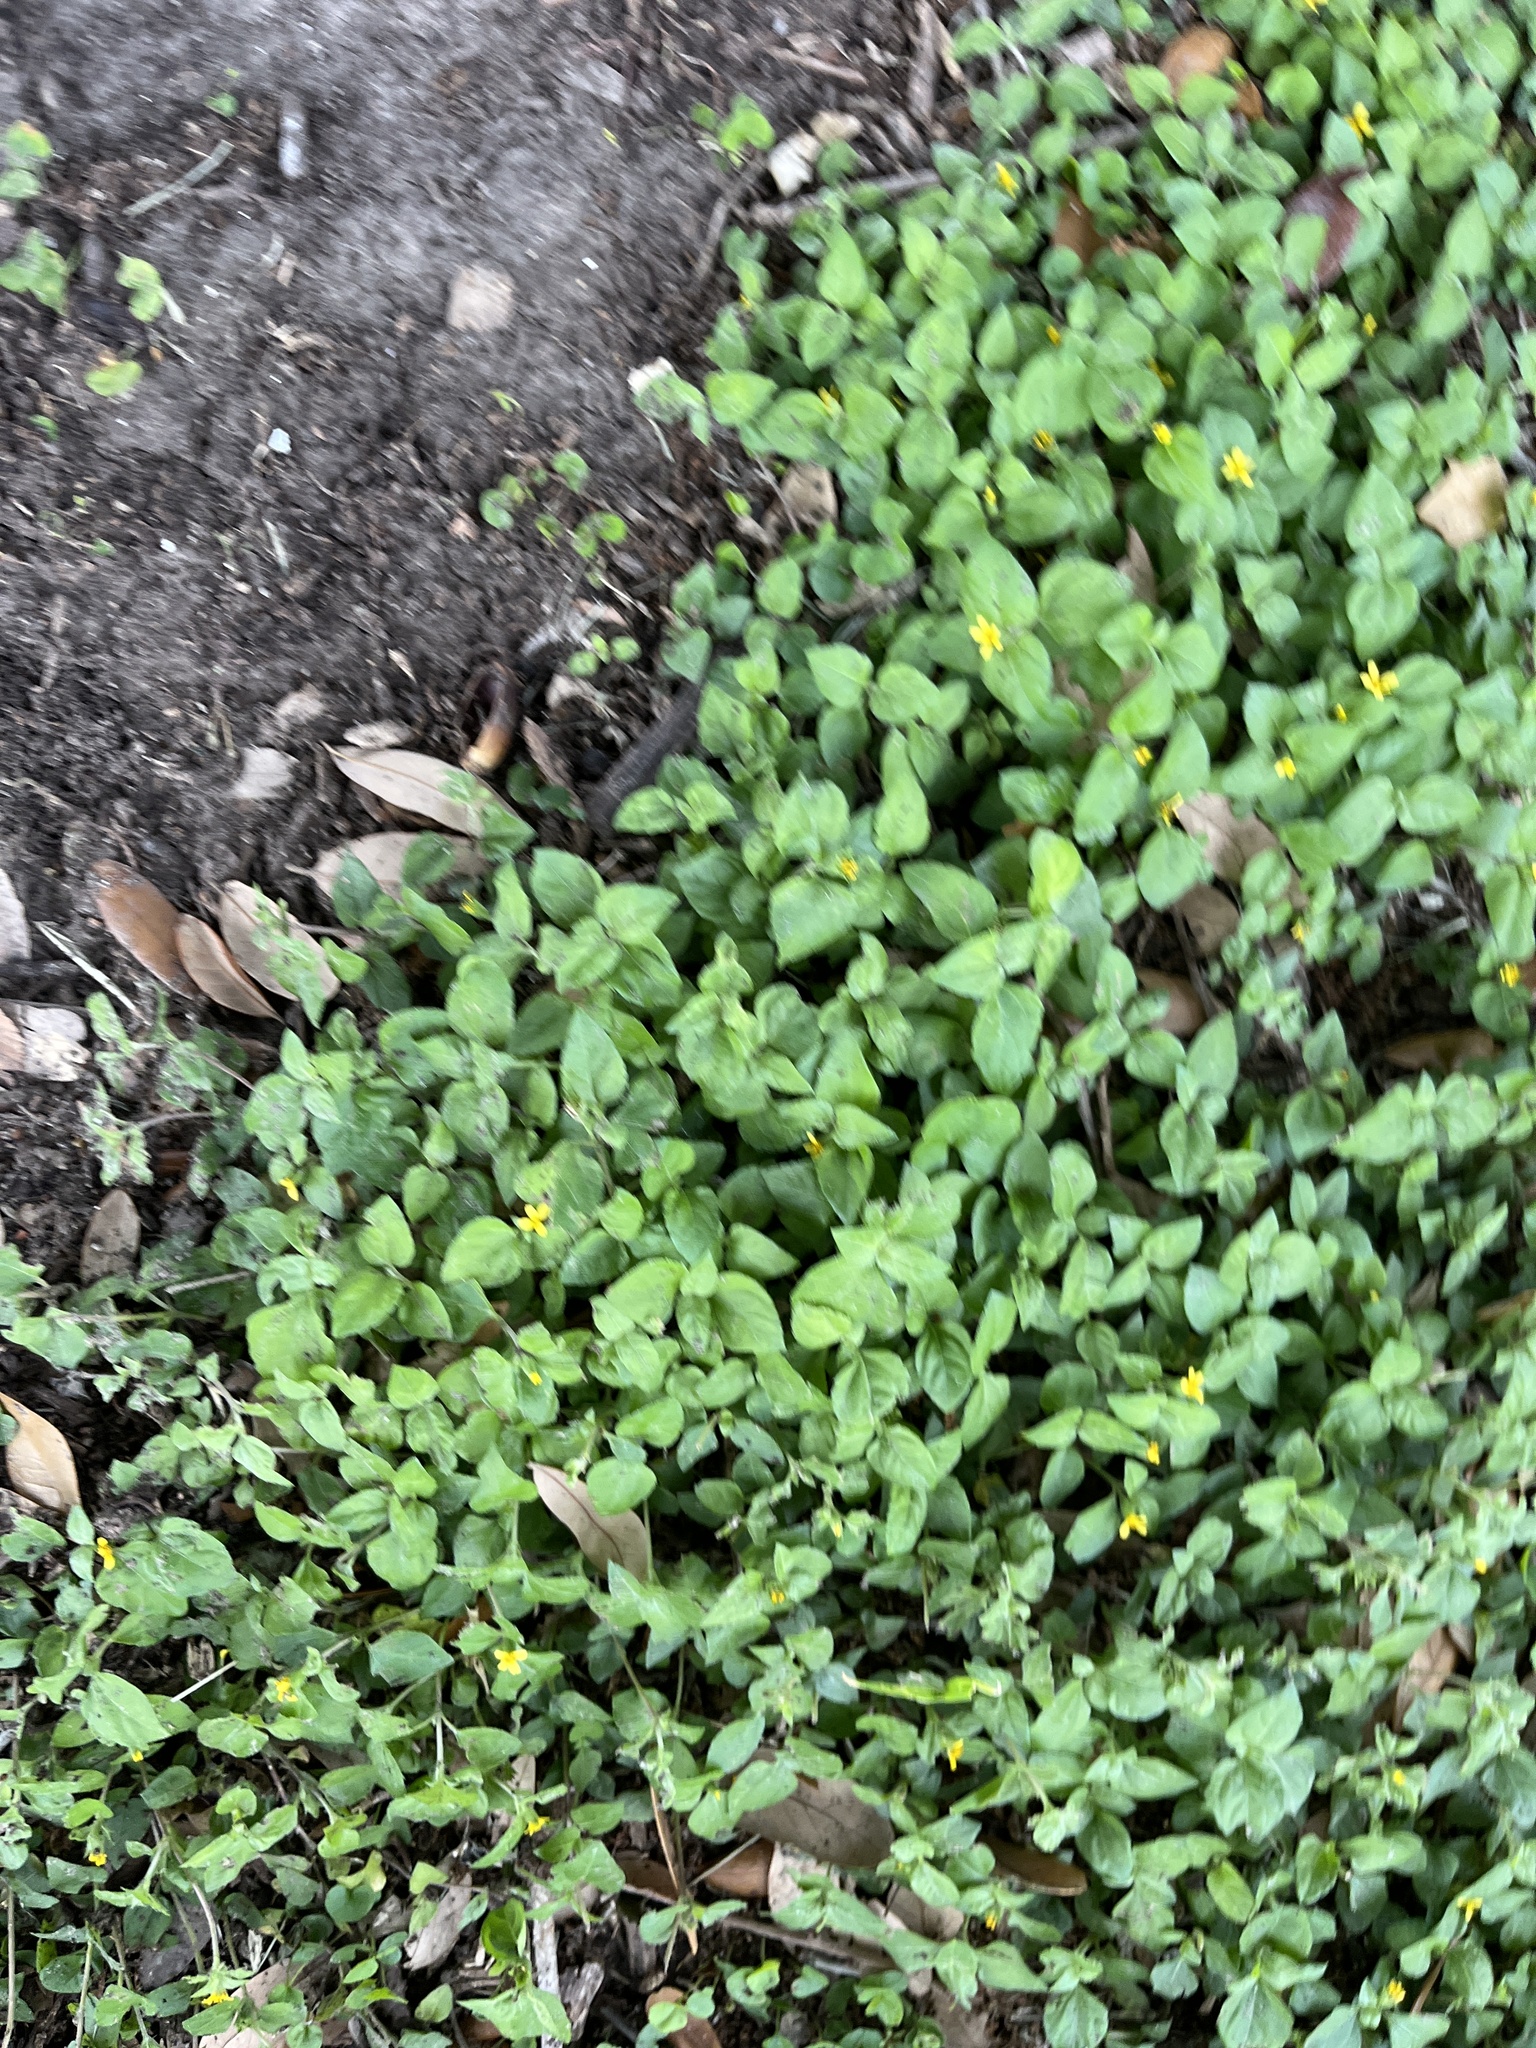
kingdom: Plantae
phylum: Tracheophyta
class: Magnoliopsida
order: Asterales
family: Asteraceae
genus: Calyptocarpus
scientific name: Calyptocarpus vialis
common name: Straggler daisy
